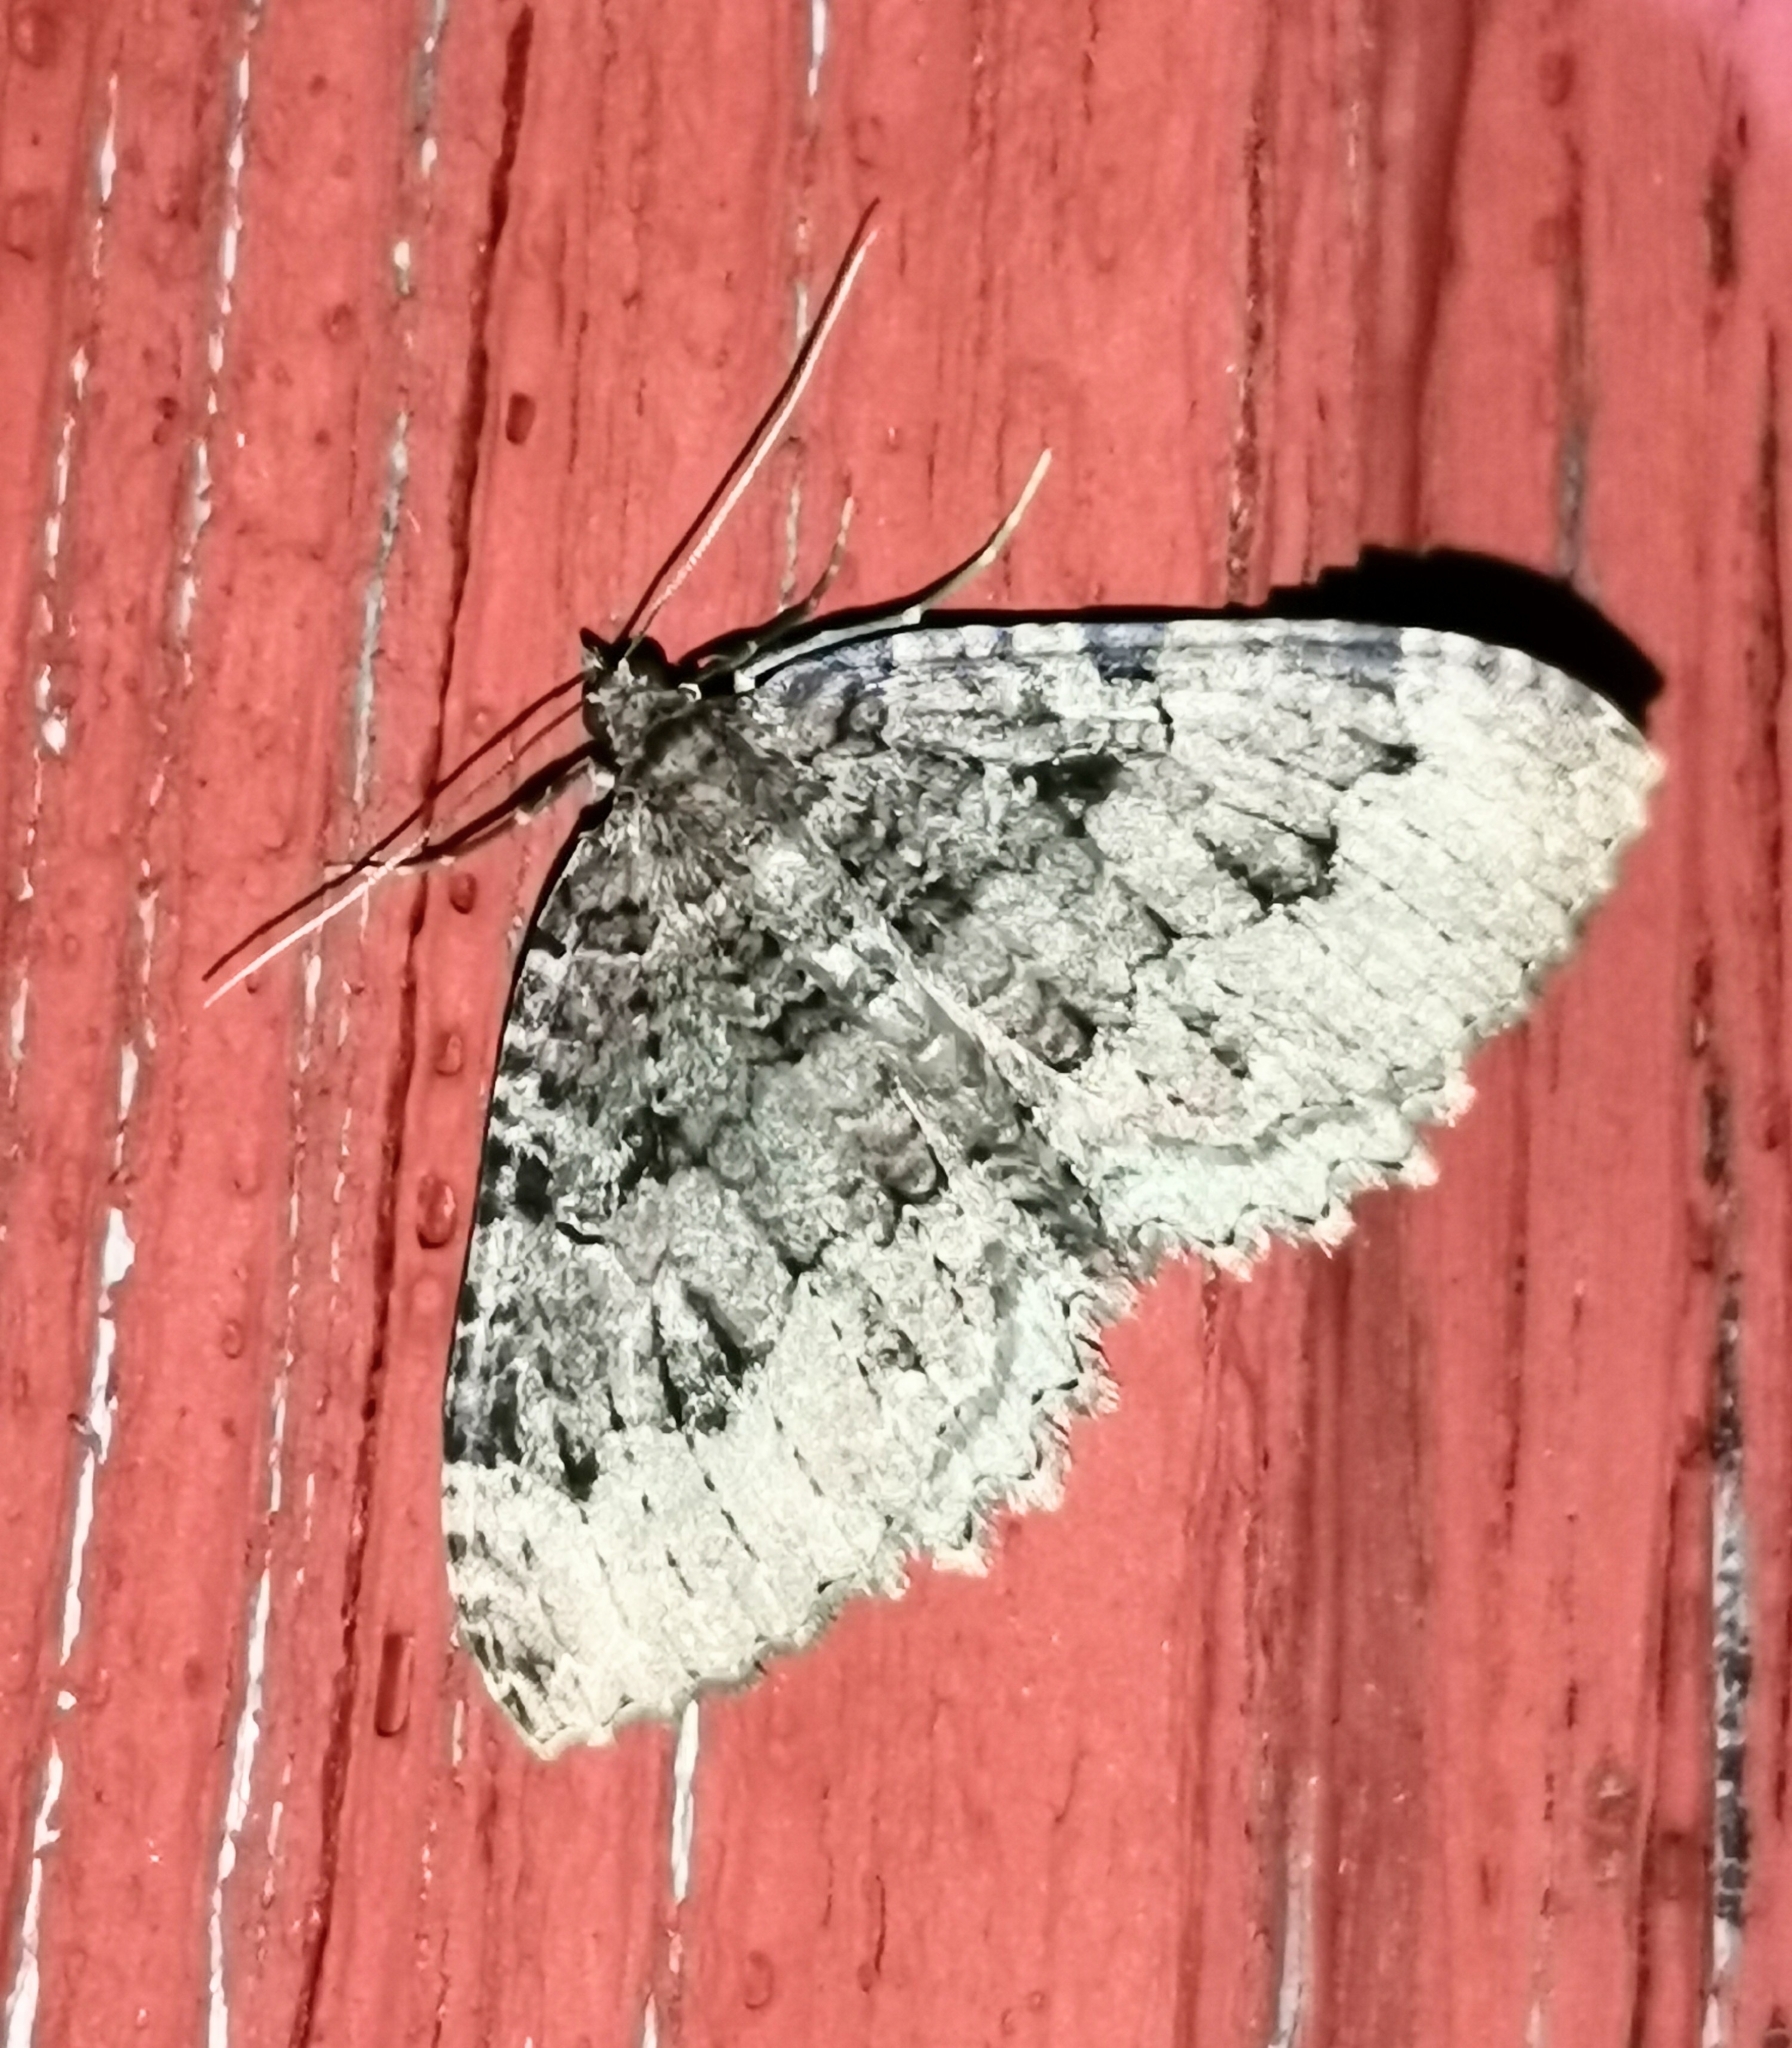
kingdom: Animalia
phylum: Arthropoda
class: Insecta
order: Lepidoptera
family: Geometridae
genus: Triphosa
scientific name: Triphosa dubitata
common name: Tissue
